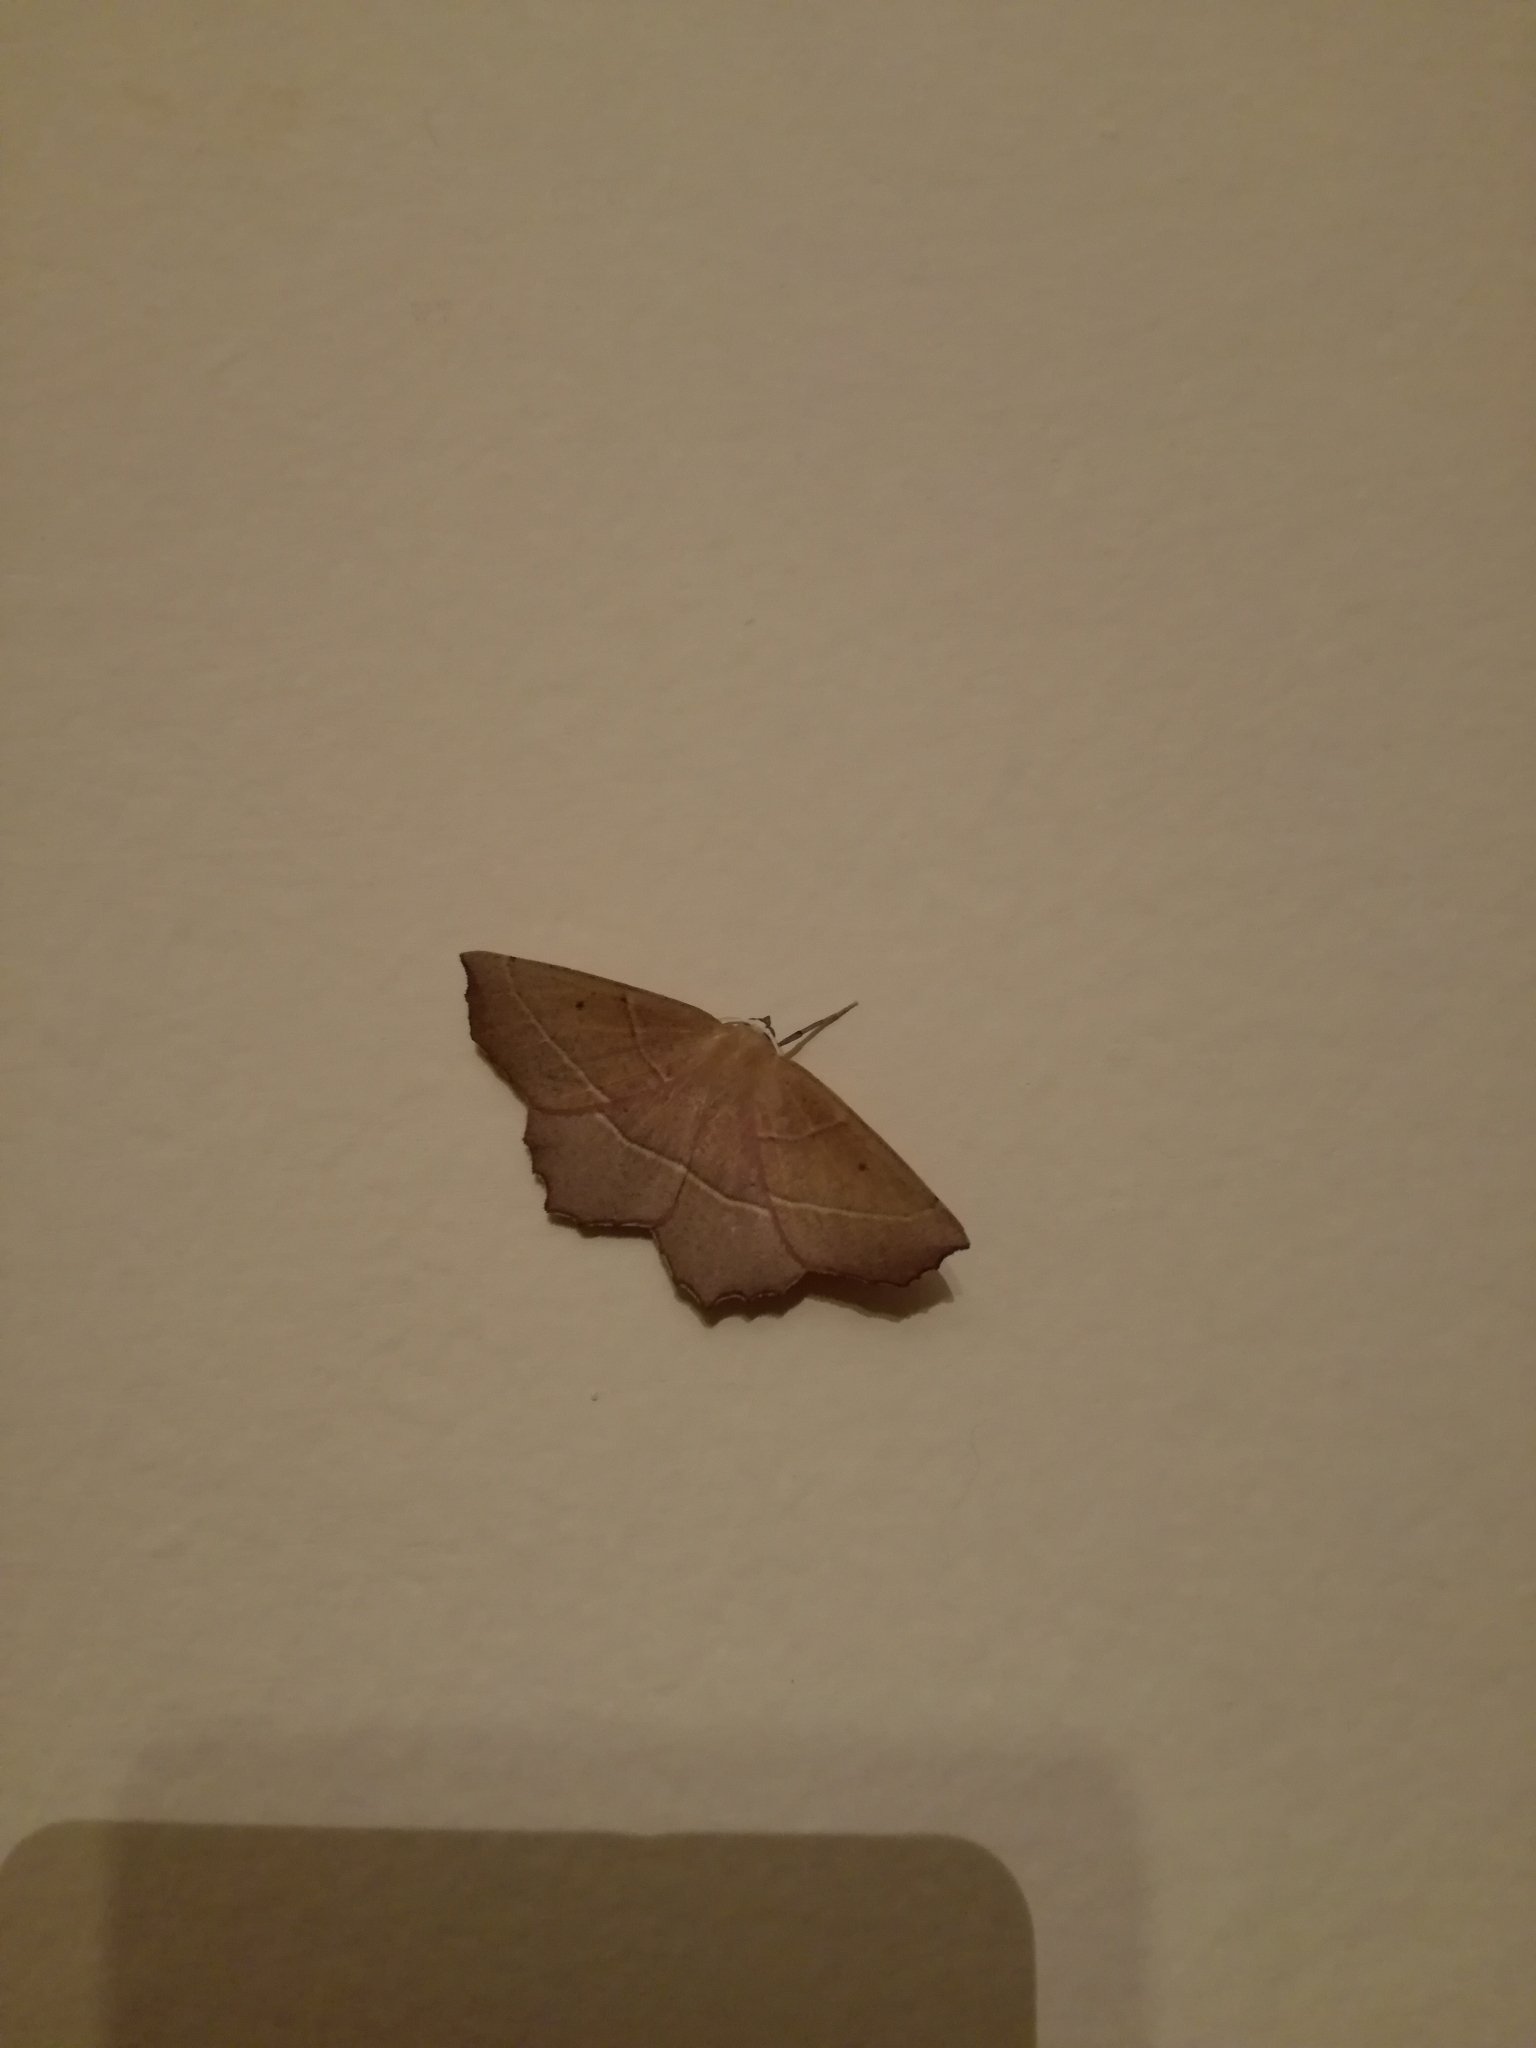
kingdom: Animalia
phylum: Arthropoda
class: Insecta
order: Lepidoptera
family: Geometridae
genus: Gerinia
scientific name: Gerinia honoraria
